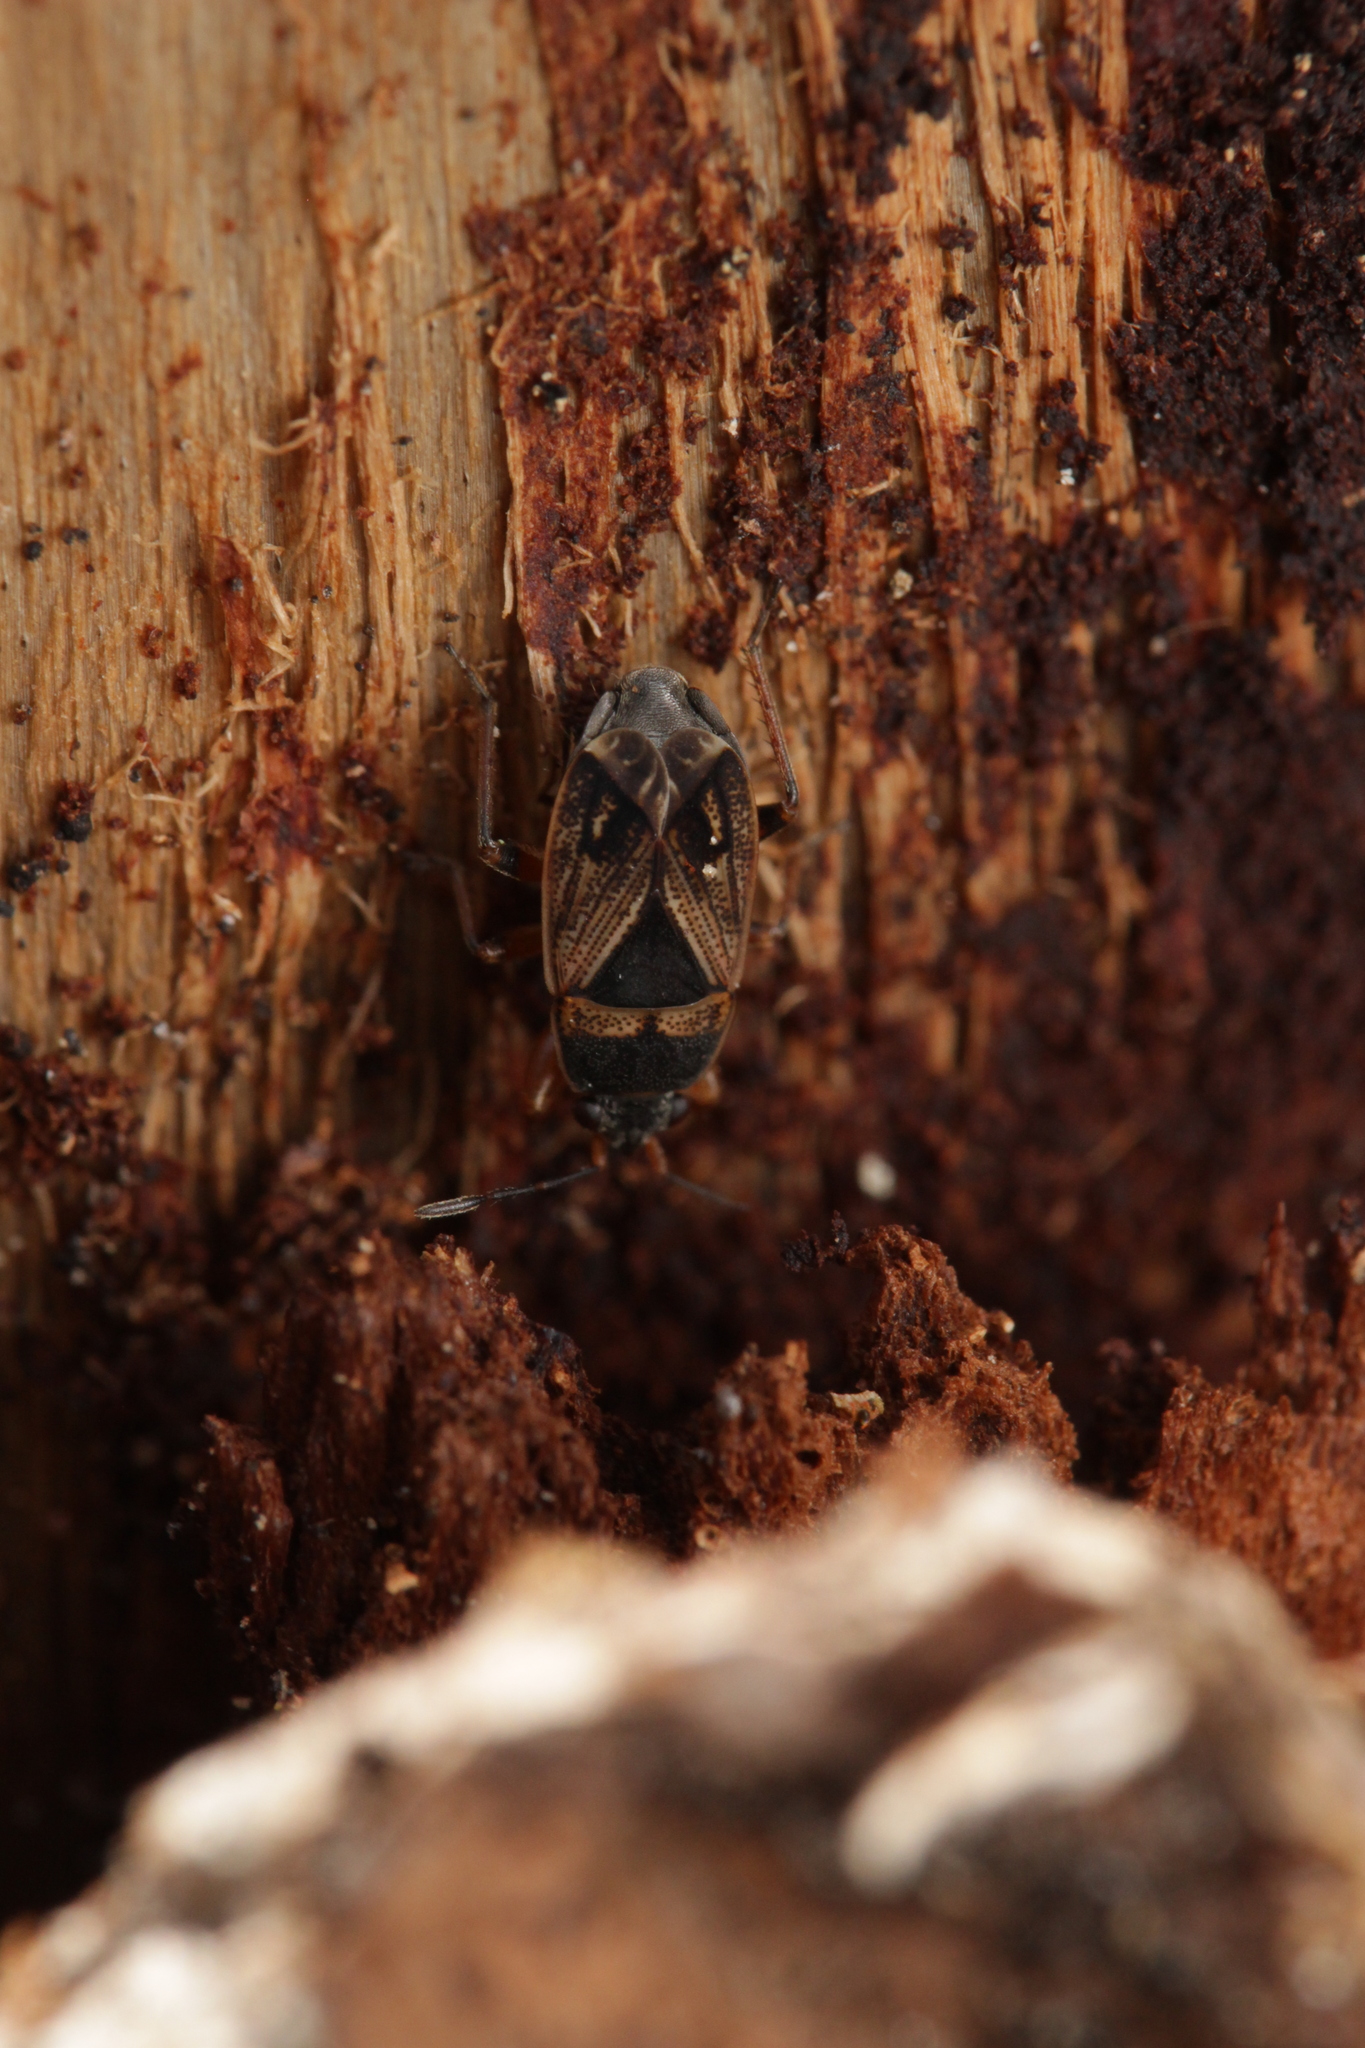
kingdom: Animalia
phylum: Arthropoda
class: Insecta
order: Hemiptera
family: Rhyparochromidae
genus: Trapezonotus
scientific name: Trapezonotus dispar
